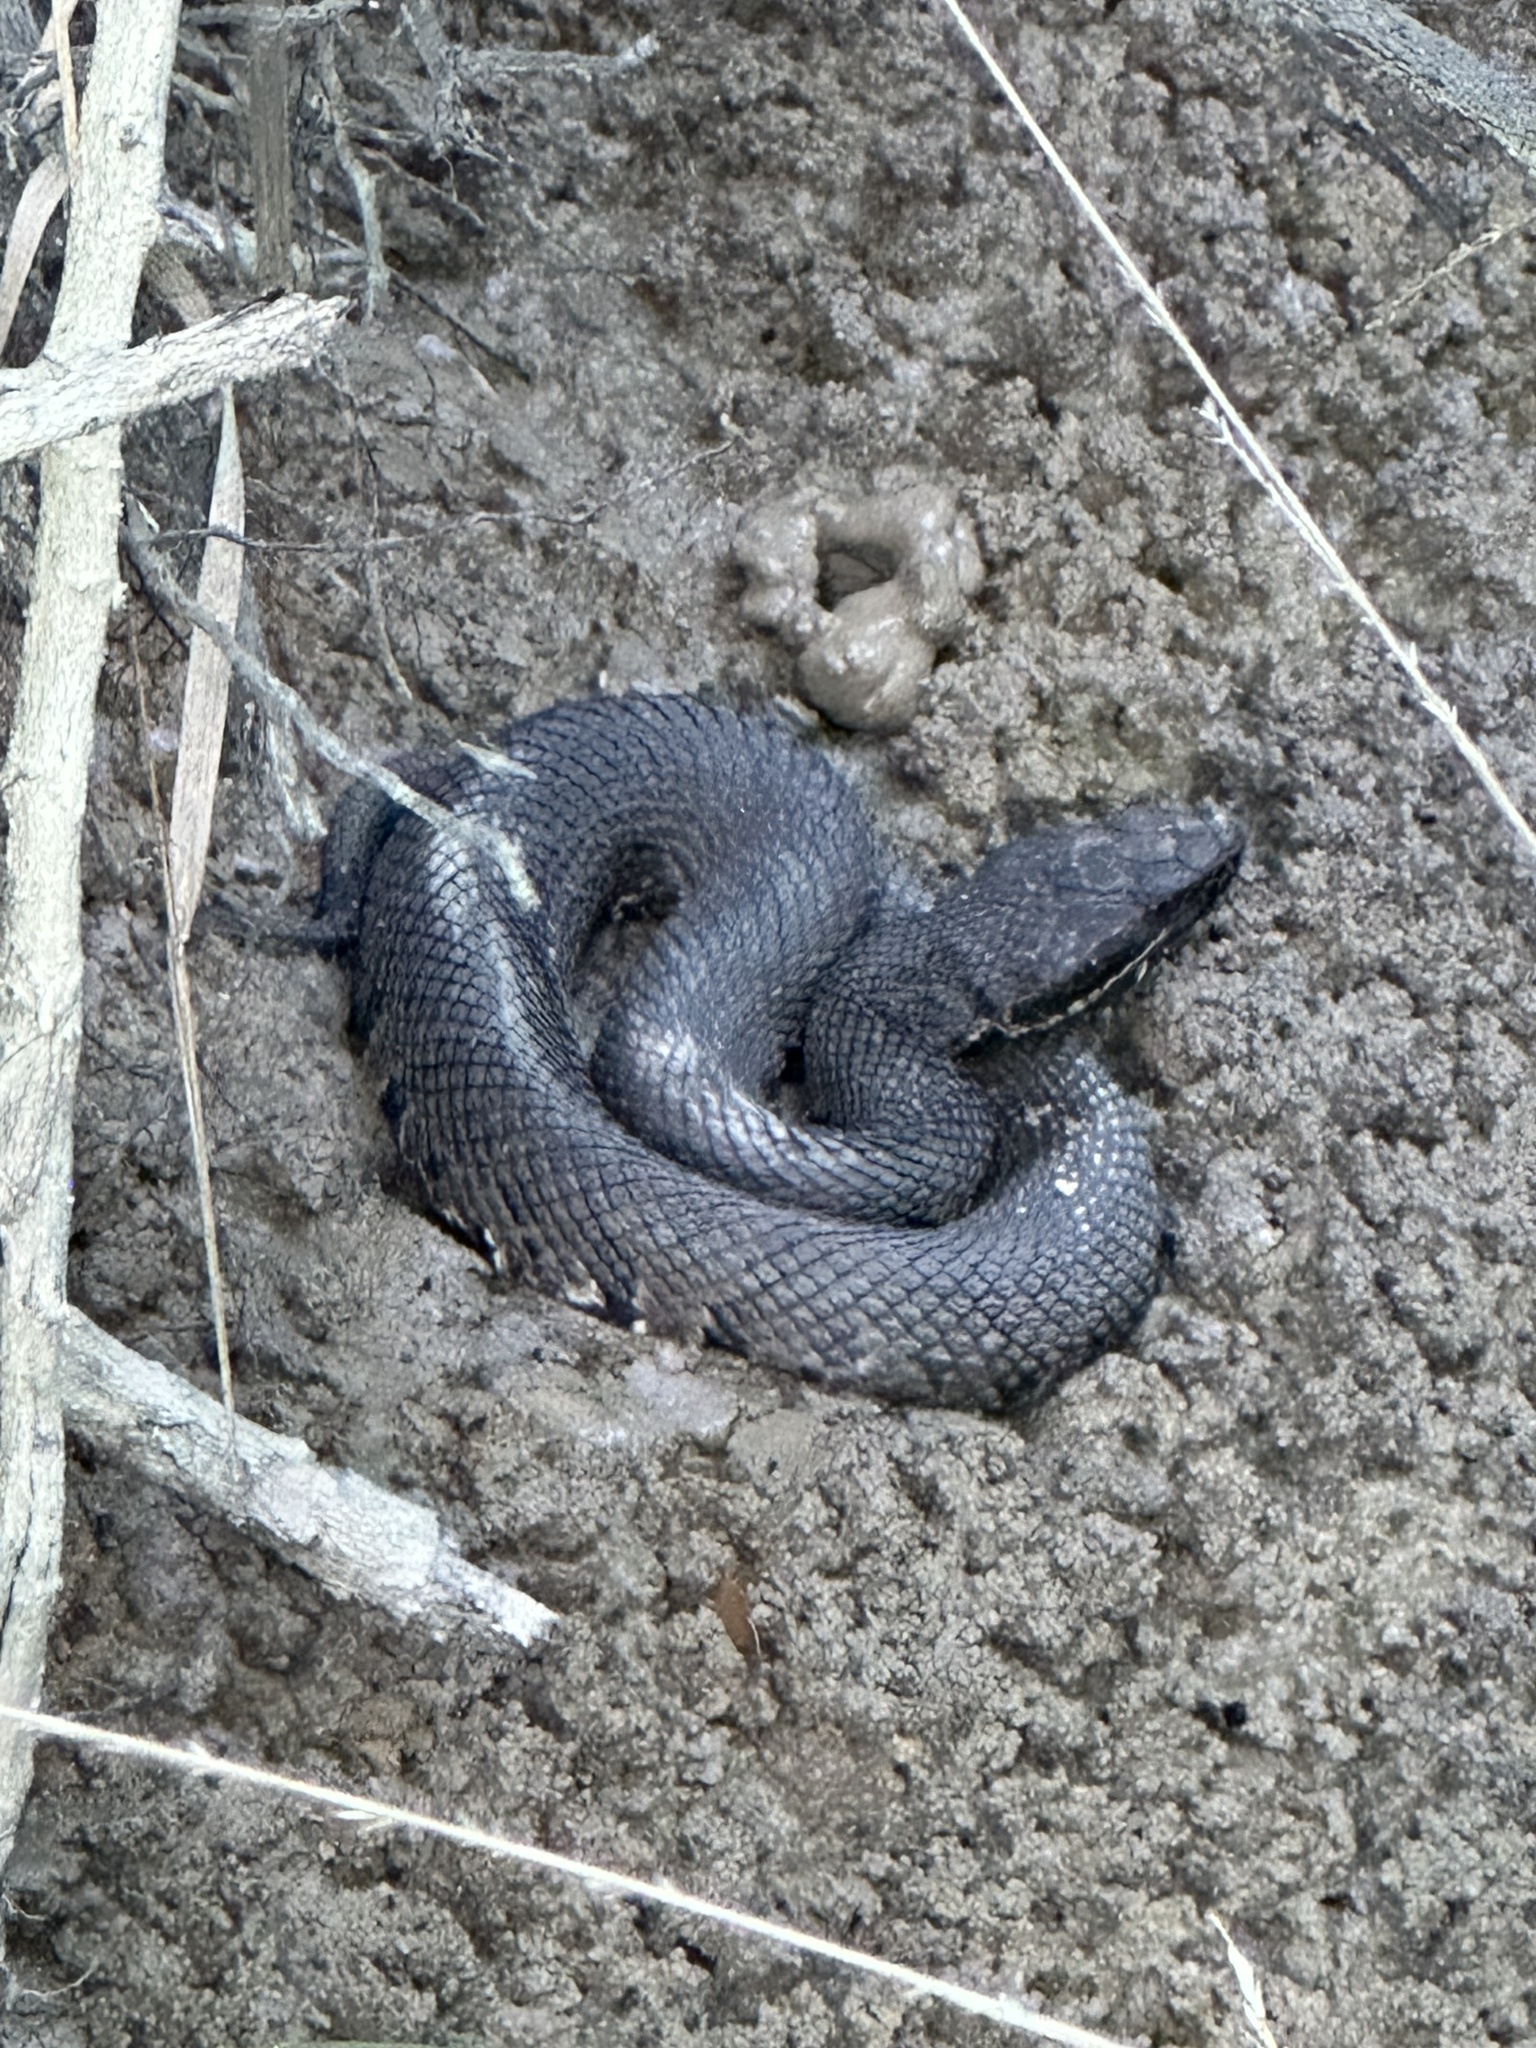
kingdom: Animalia
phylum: Chordata
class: Squamata
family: Viperidae
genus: Agkistrodon
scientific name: Agkistrodon piscivorus
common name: Cottonmouth
